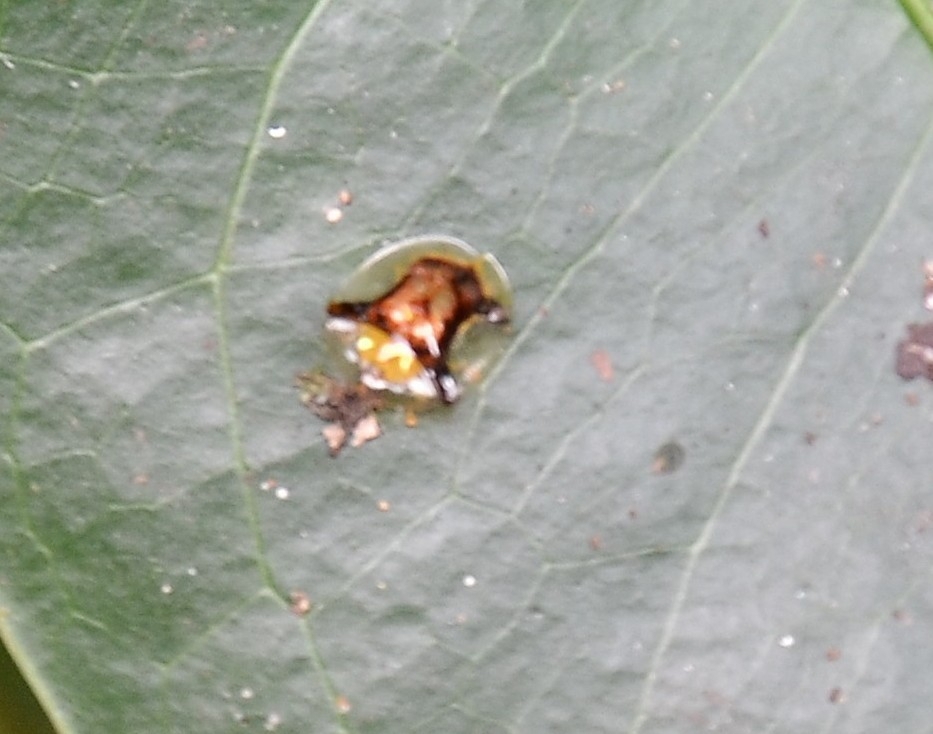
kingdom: Animalia
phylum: Arthropoda
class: Insecta
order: Coleoptera
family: Chrysomelidae
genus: Aspidimorpha
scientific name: Aspidimorpha furcata
